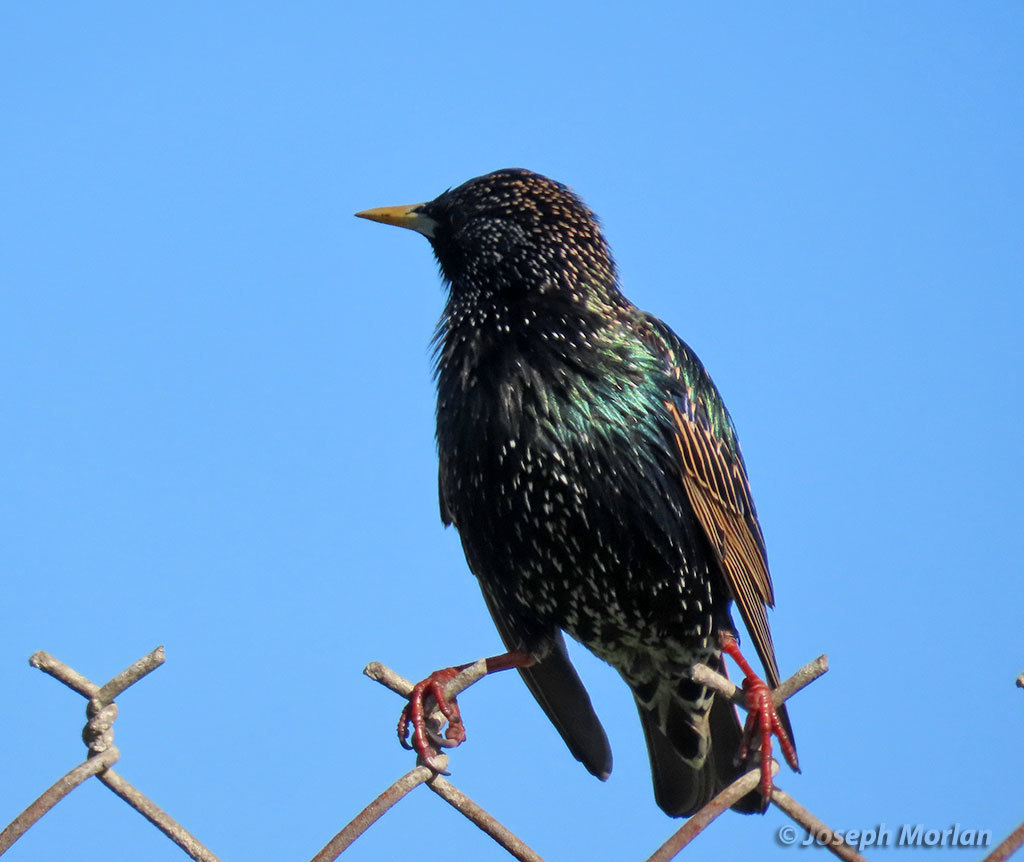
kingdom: Animalia
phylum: Chordata
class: Aves
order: Passeriformes
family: Sturnidae
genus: Sturnus
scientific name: Sturnus vulgaris
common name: Common starling
